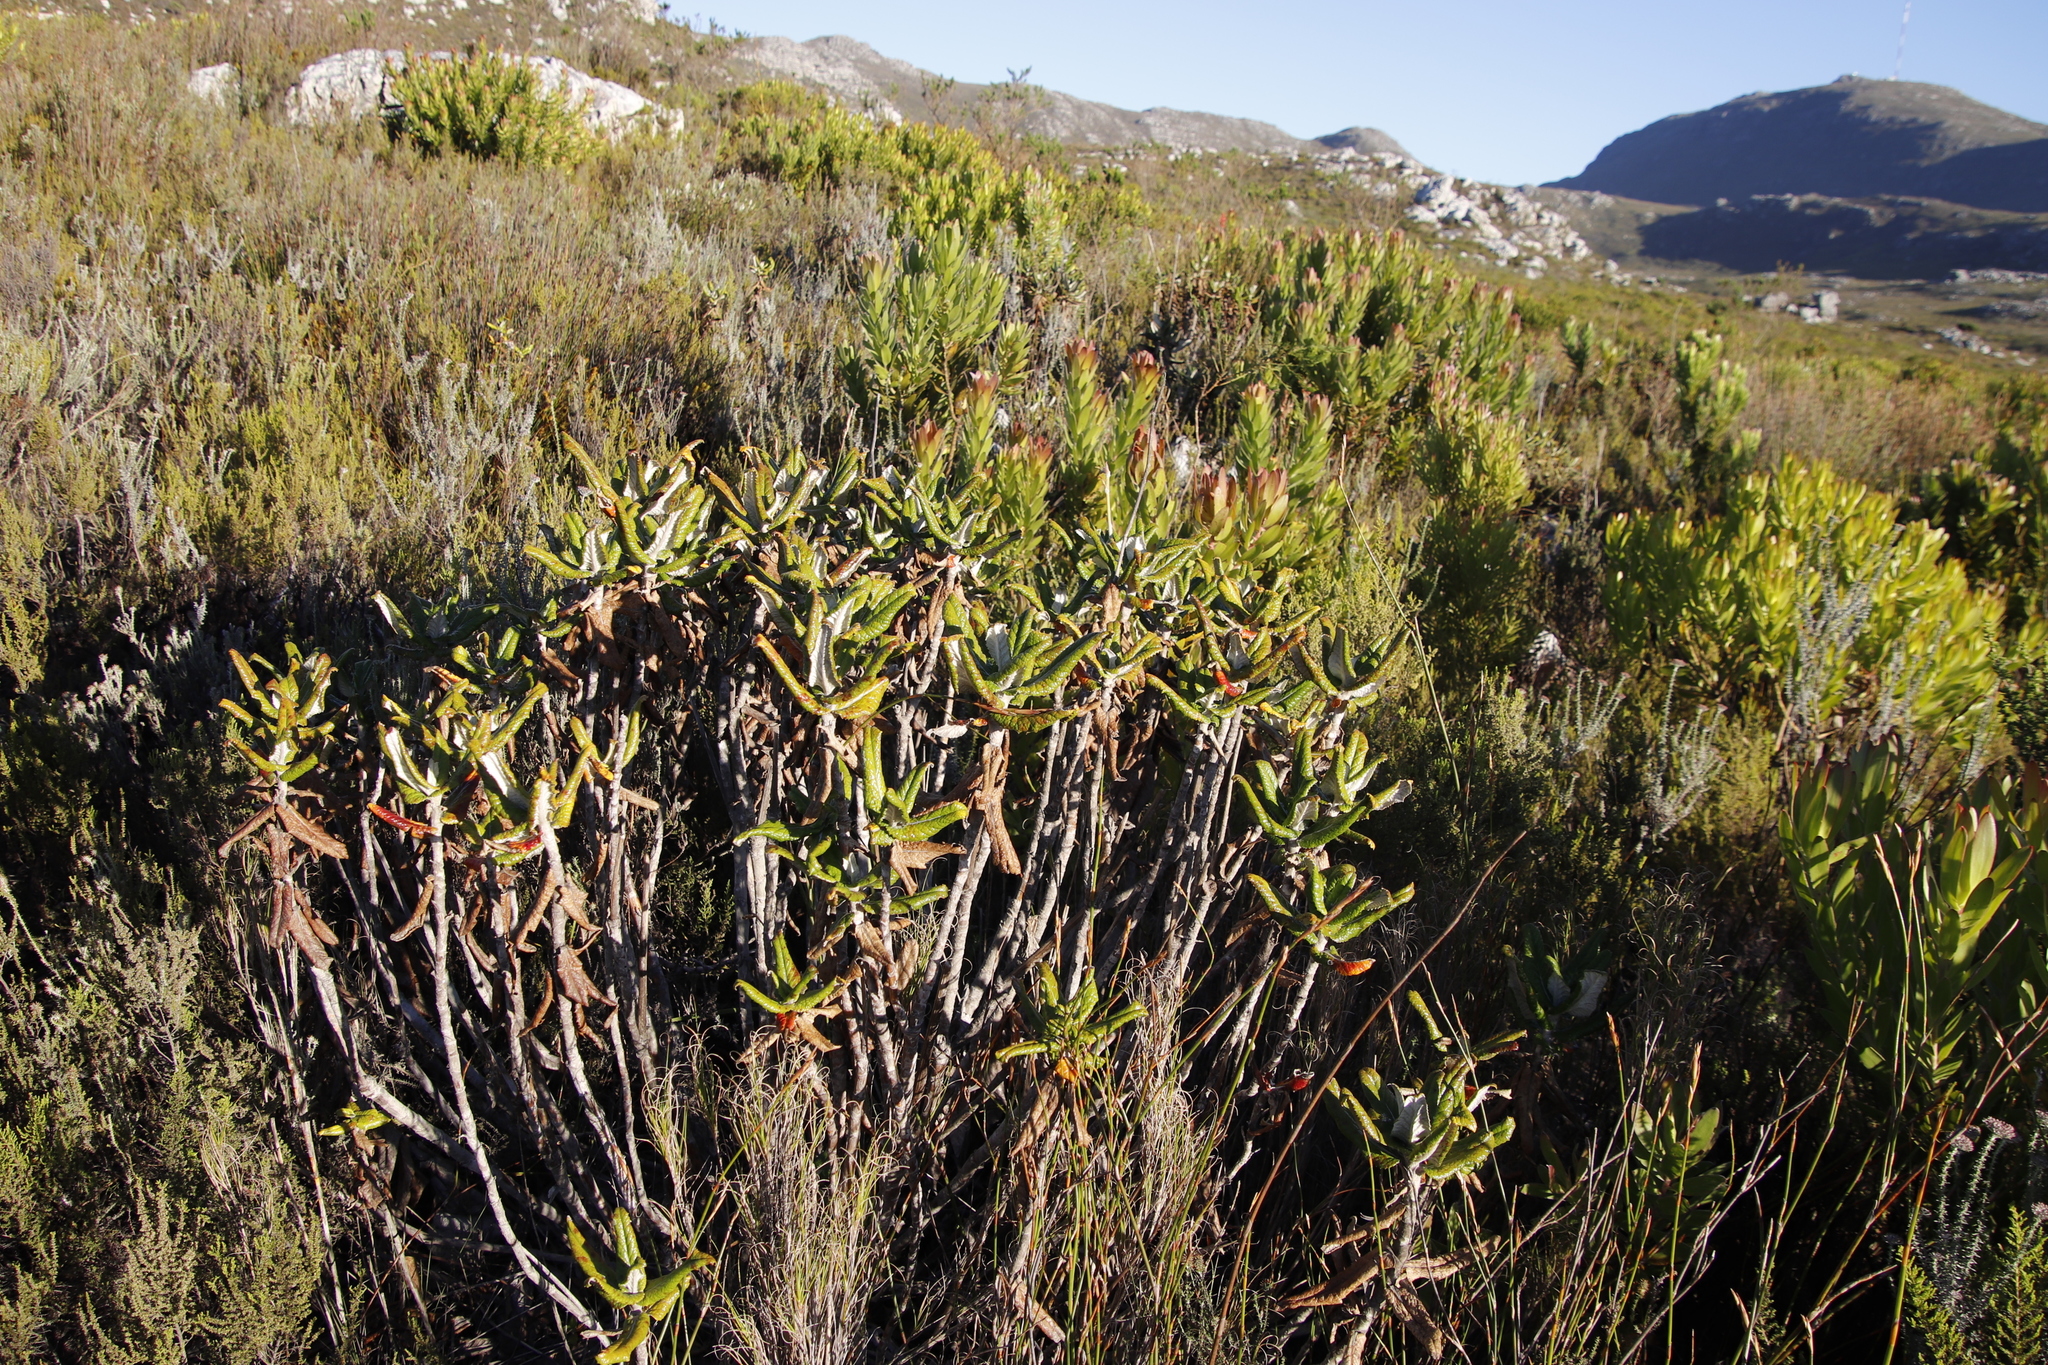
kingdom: Plantae
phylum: Tracheophyta
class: Magnoliopsida
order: Apiales
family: Apiaceae
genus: Hermas
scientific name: Hermas villosa
